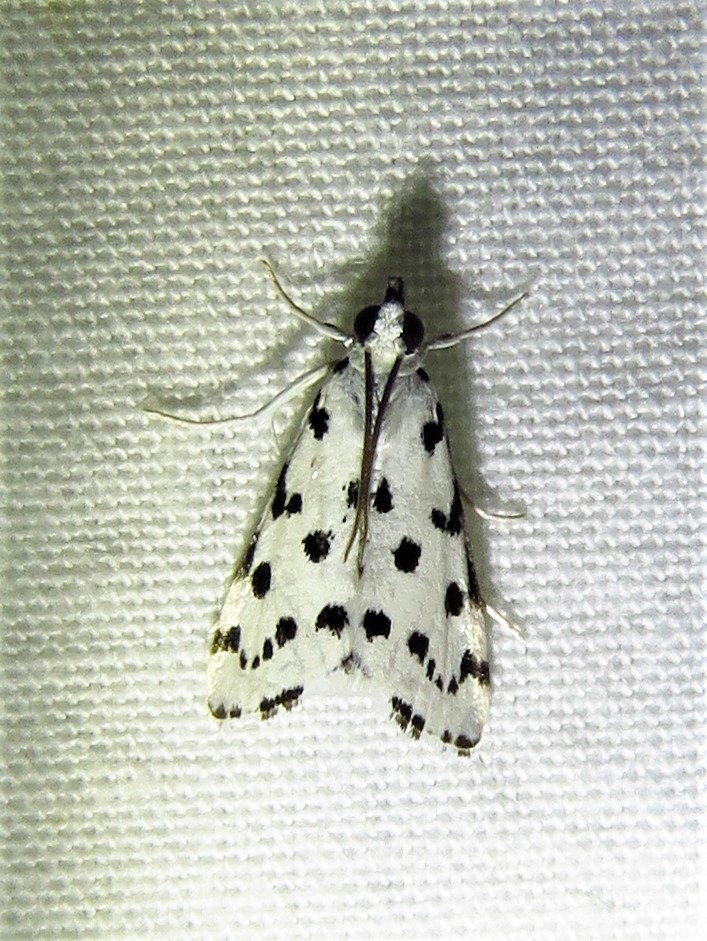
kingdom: Animalia
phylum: Arthropoda
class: Insecta
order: Lepidoptera
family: Crambidae
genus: Eustixia
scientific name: Eustixia pupula
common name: American cabbage pearl
